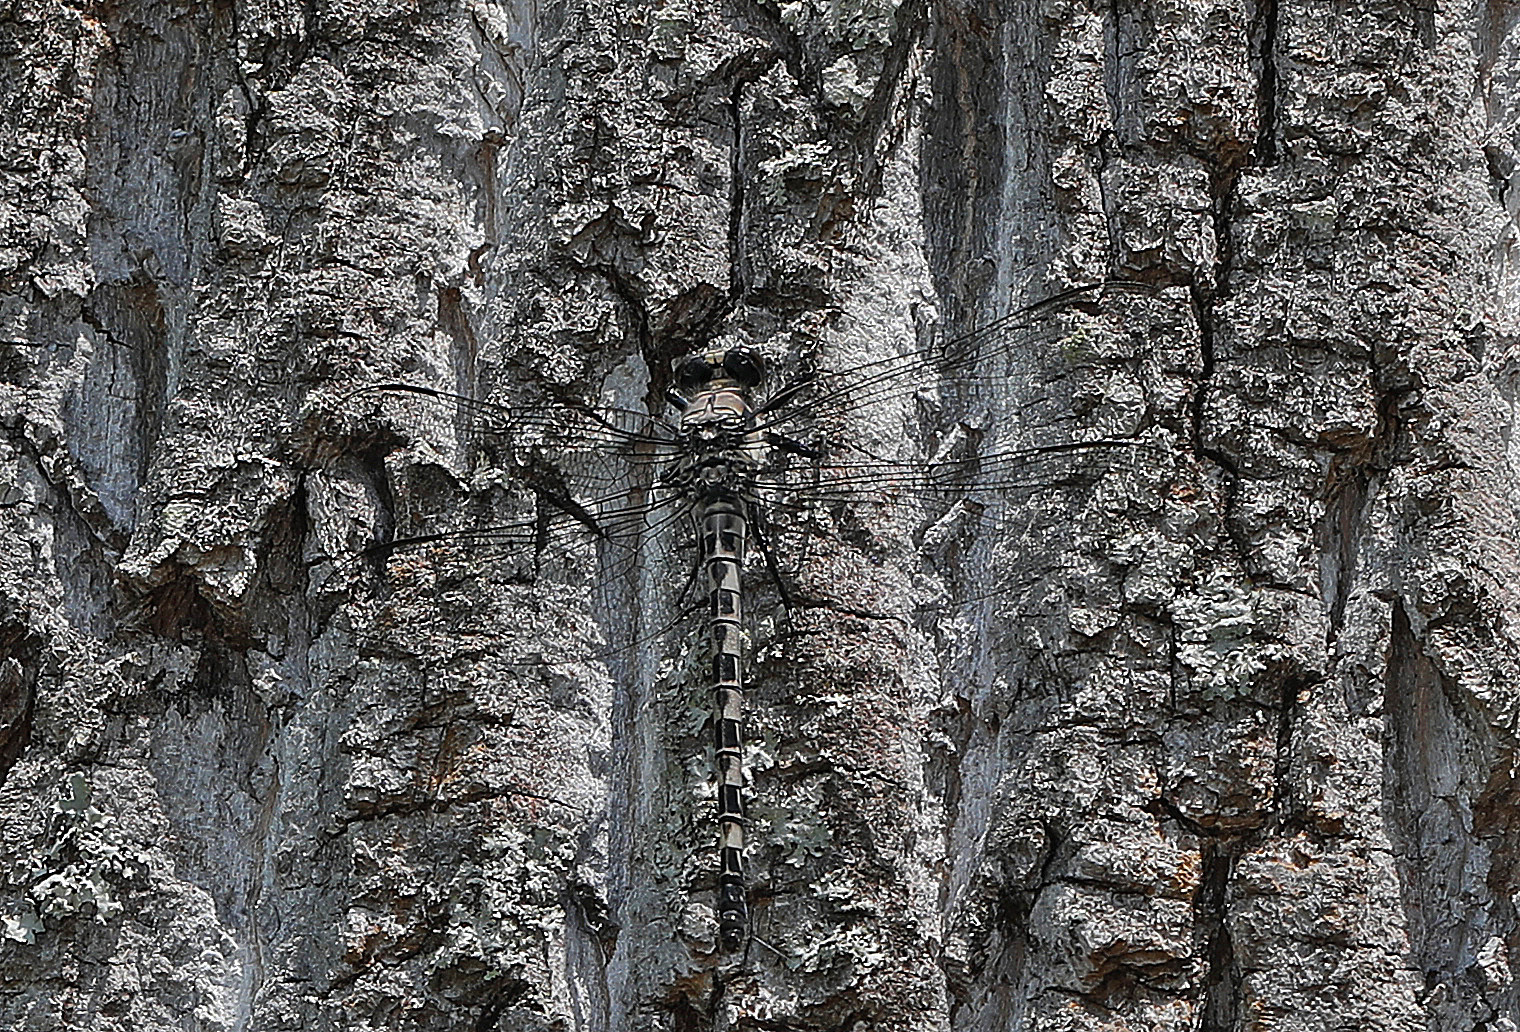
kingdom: Animalia
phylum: Arthropoda
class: Insecta
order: Odonata
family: Petaluridae
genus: Tachopteryx
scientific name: Tachopteryx thoreyi
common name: Gray petaltail
